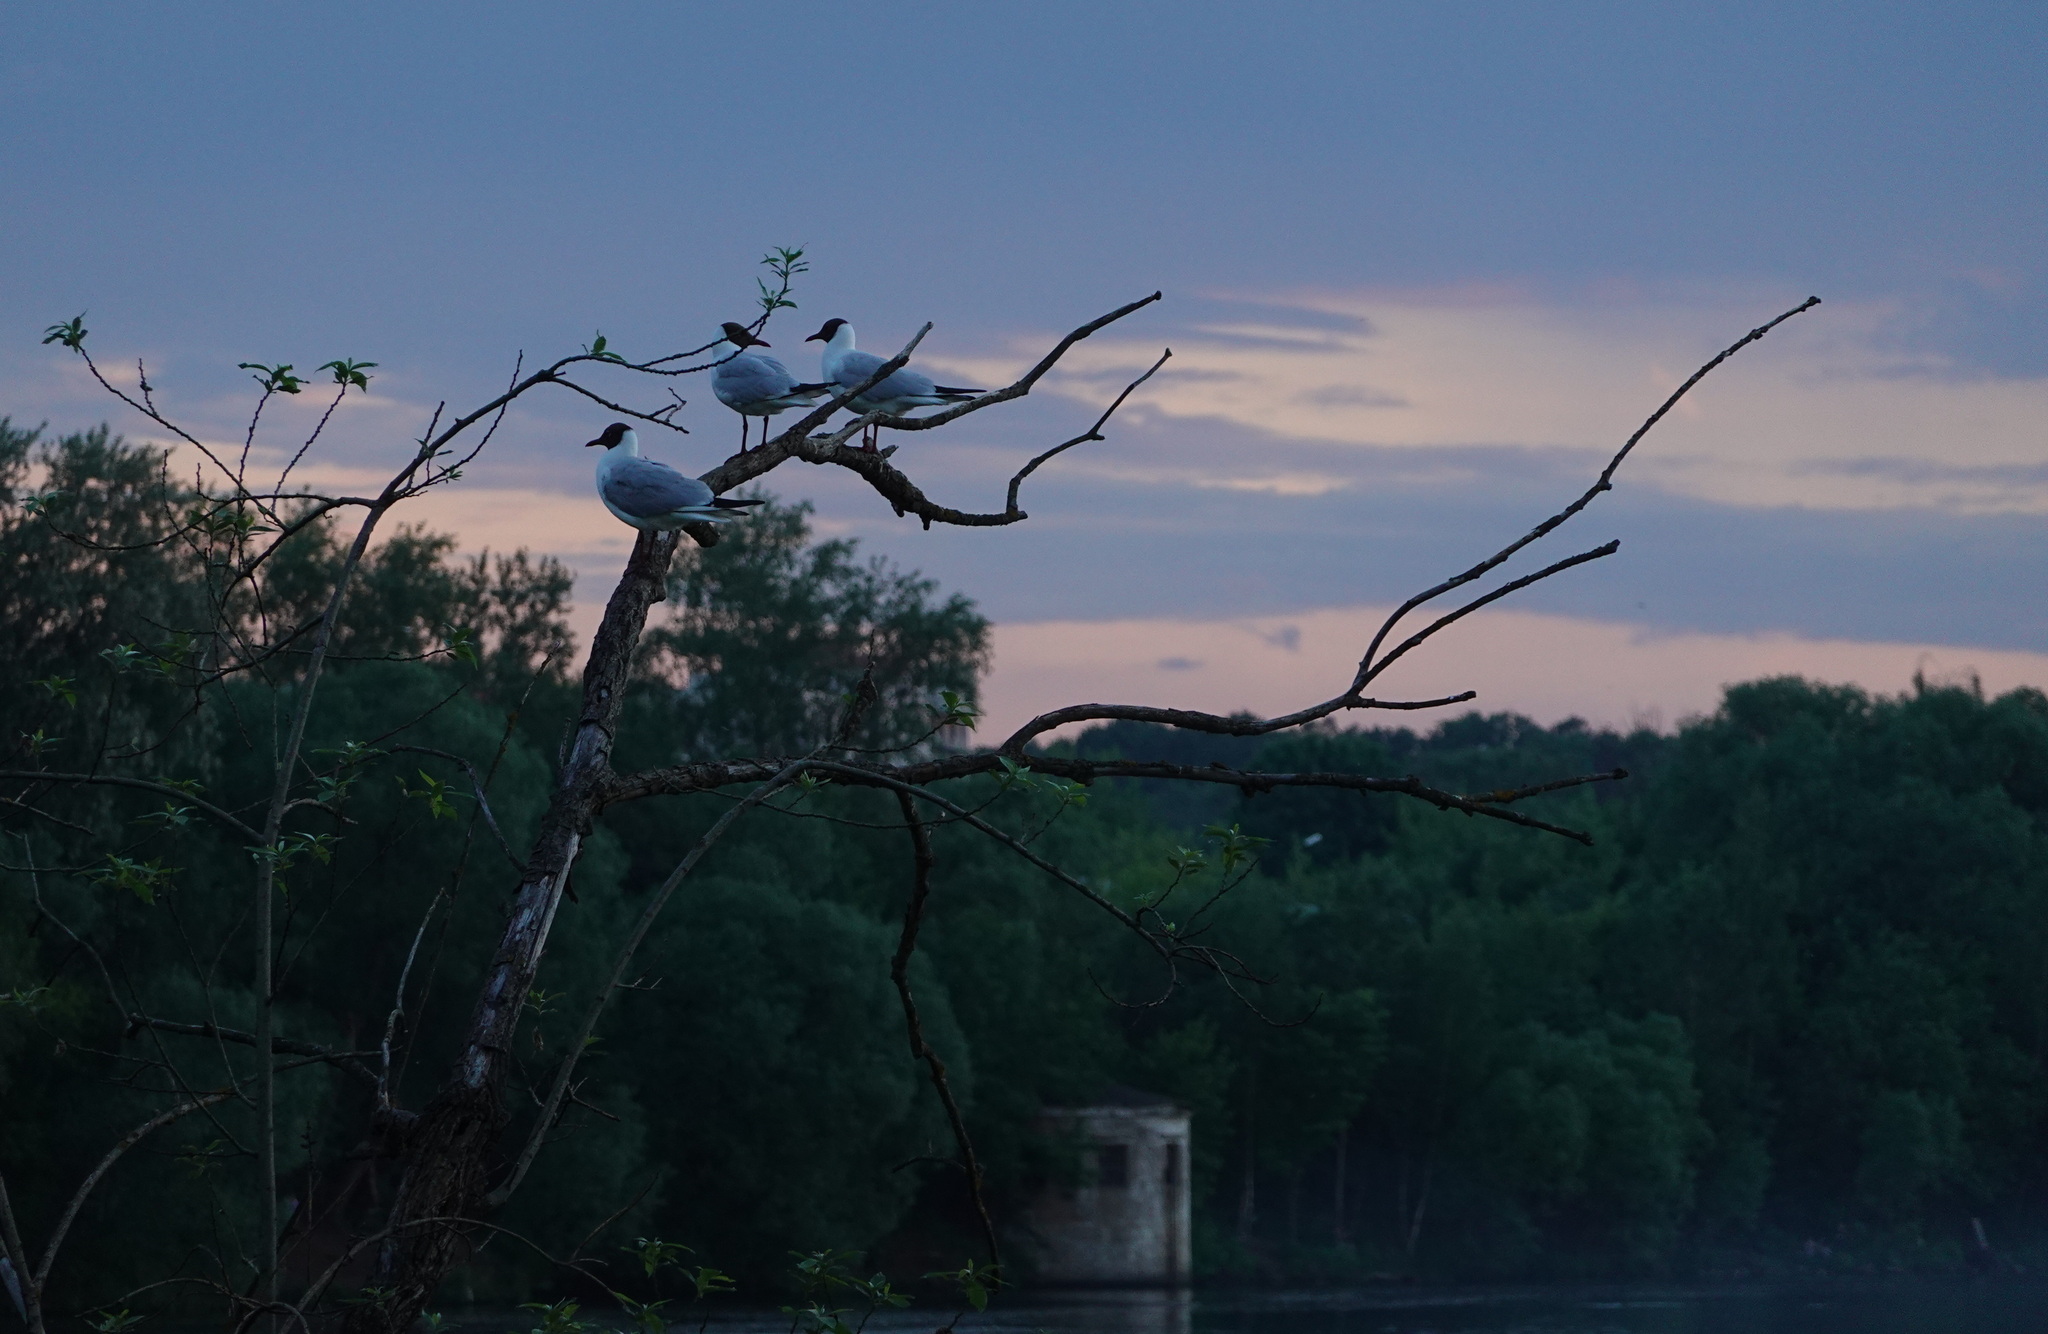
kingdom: Animalia
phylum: Chordata
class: Aves
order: Charadriiformes
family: Laridae
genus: Chroicocephalus
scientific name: Chroicocephalus ridibundus
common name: Black-headed gull
